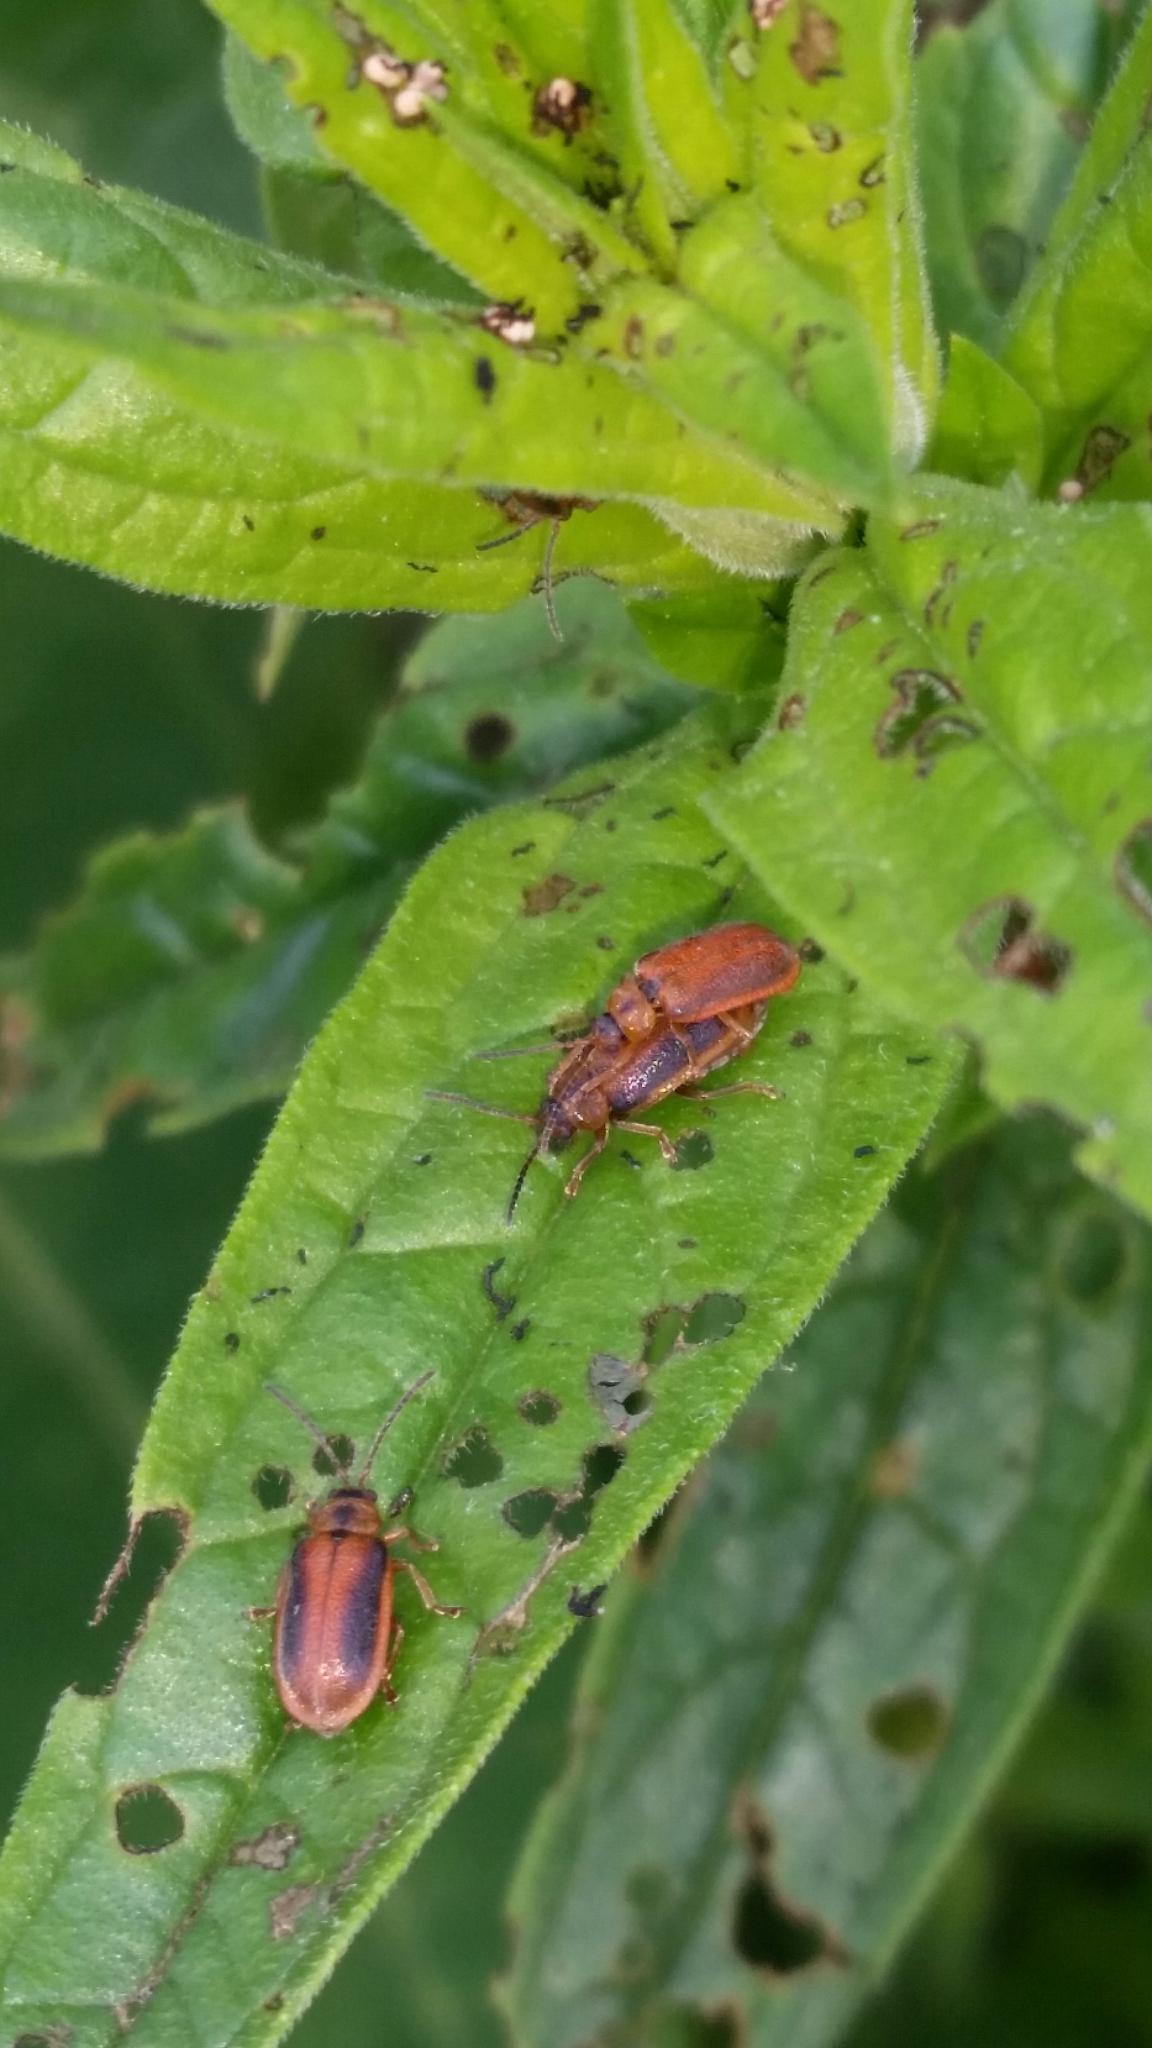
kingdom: Animalia
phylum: Arthropoda
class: Insecta
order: Coleoptera
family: Chrysomelidae
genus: Neogalerucella
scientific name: Neogalerucella calmariensis
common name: Black-margined loosestrife beetle
